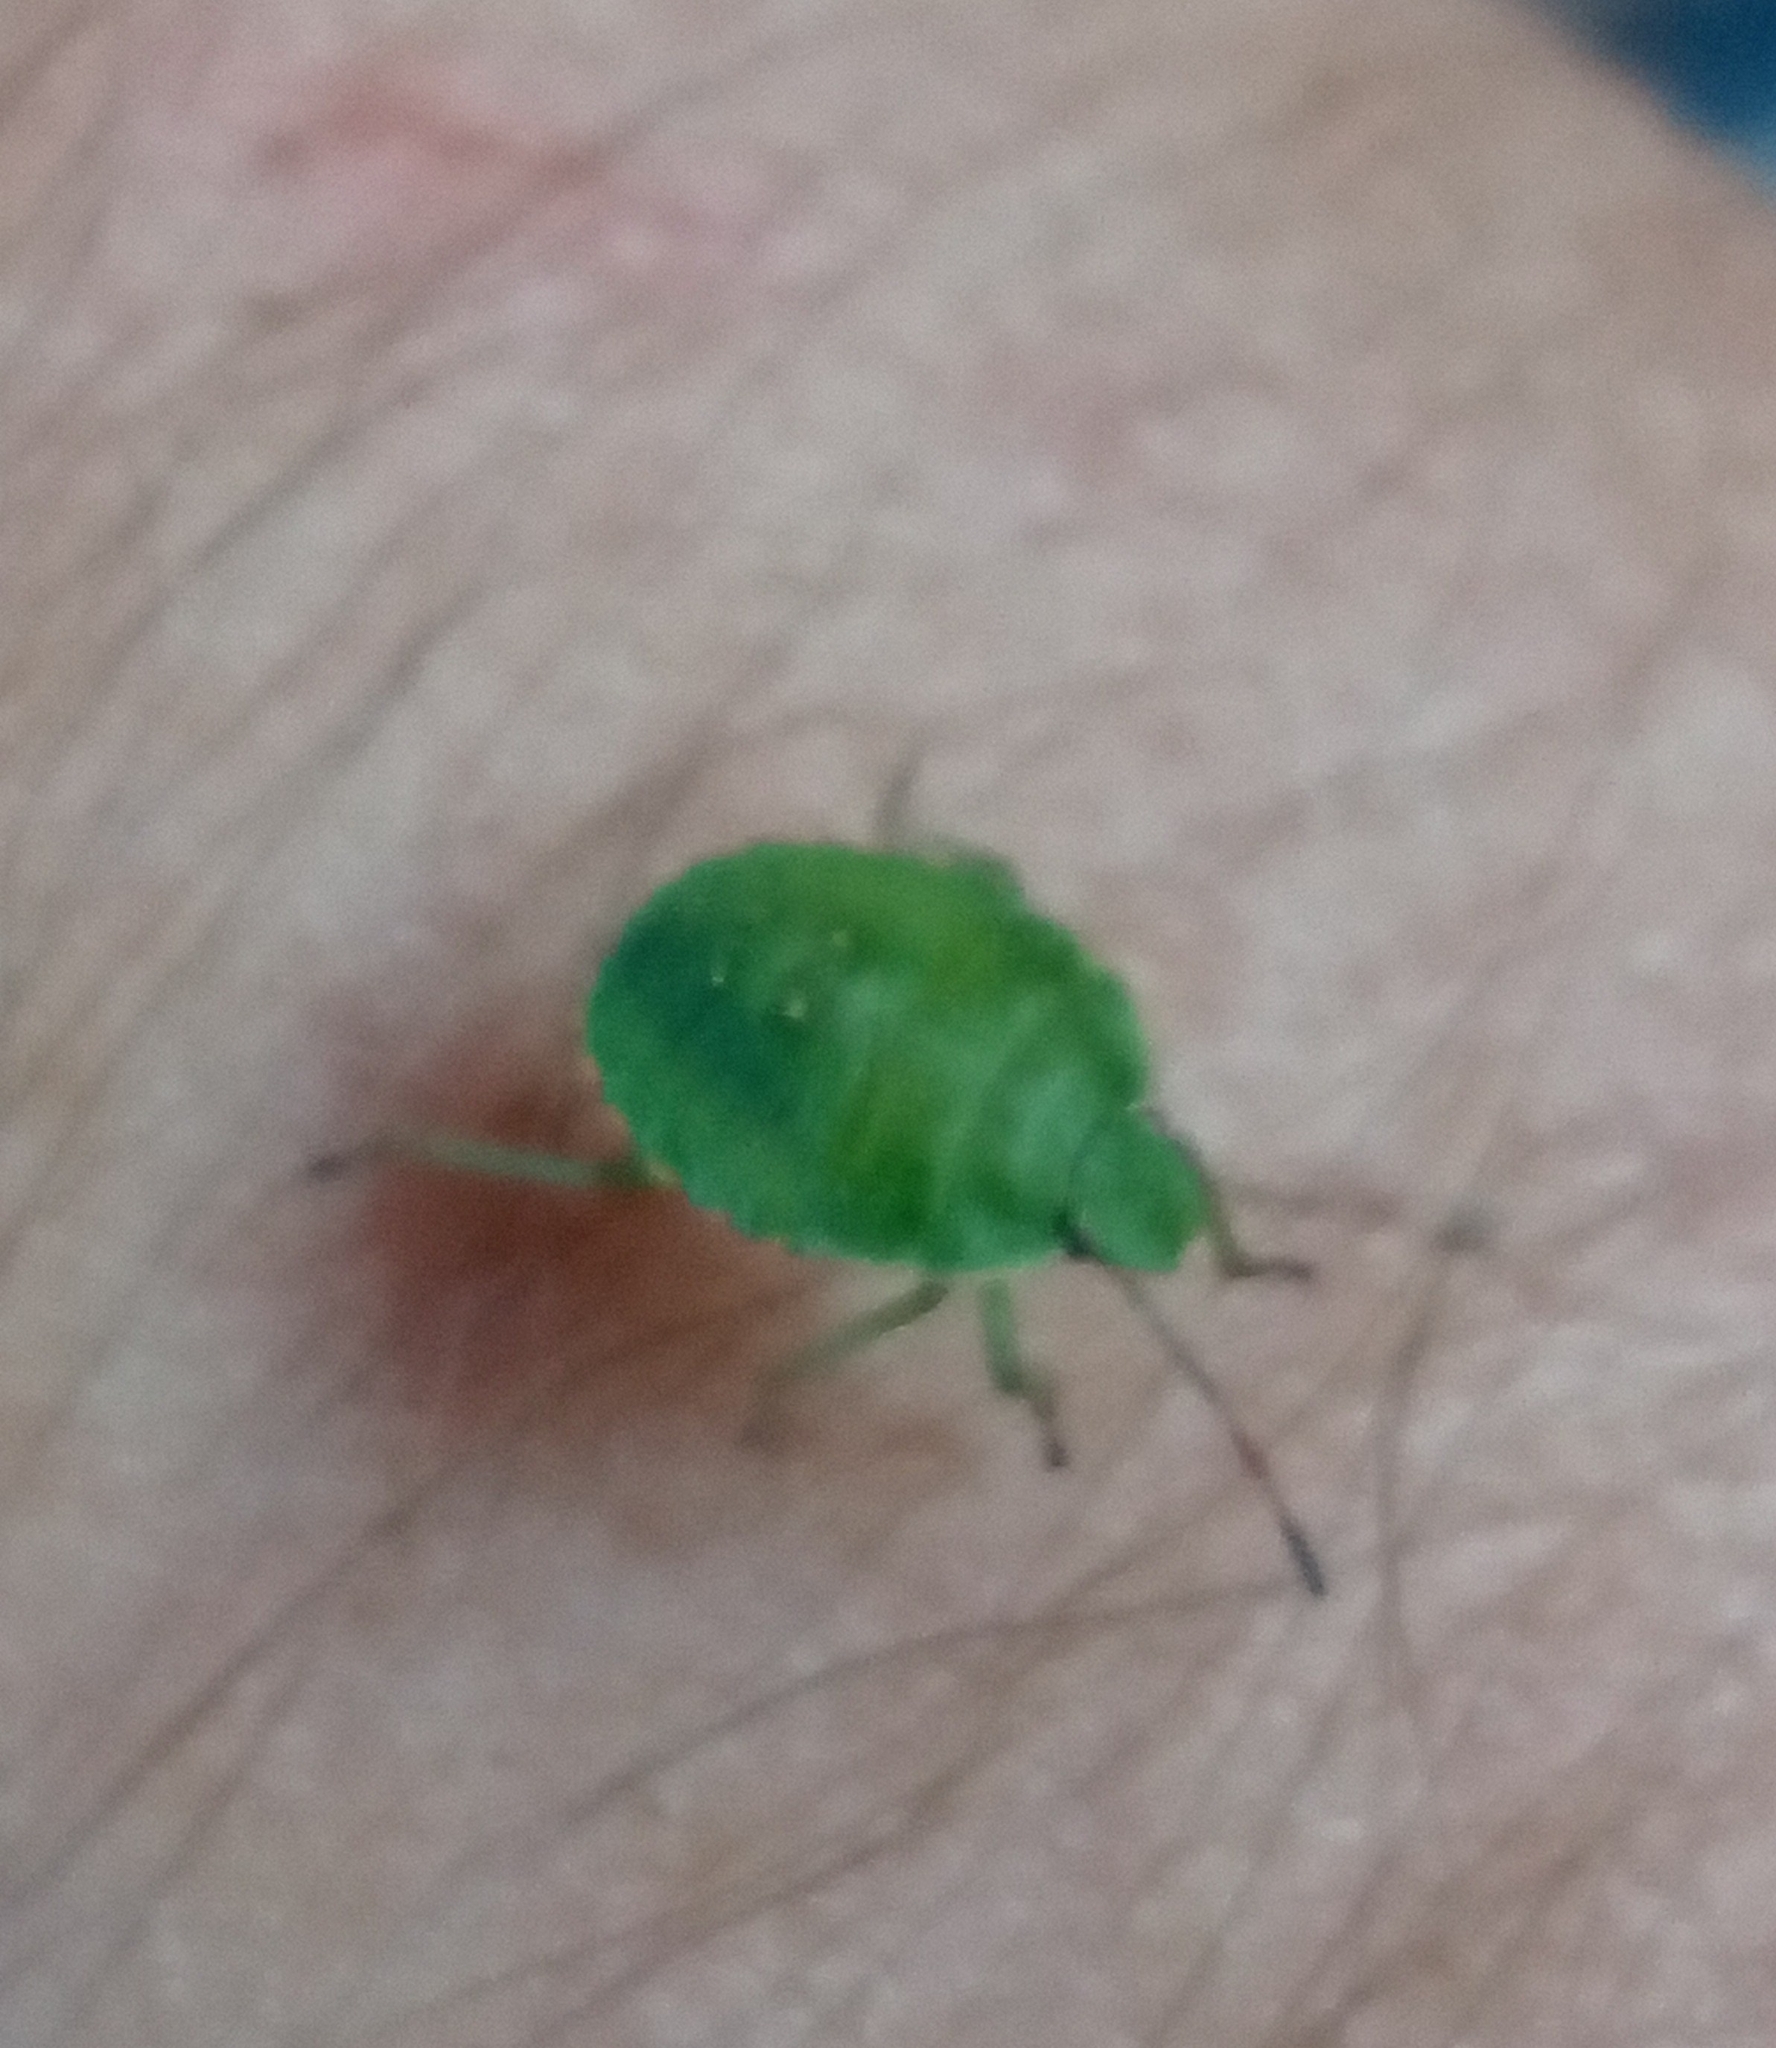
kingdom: Animalia
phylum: Arthropoda
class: Insecta
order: Hemiptera
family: Pentatomidae
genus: Palomena
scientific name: Palomena prasina
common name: Green shieldbug
